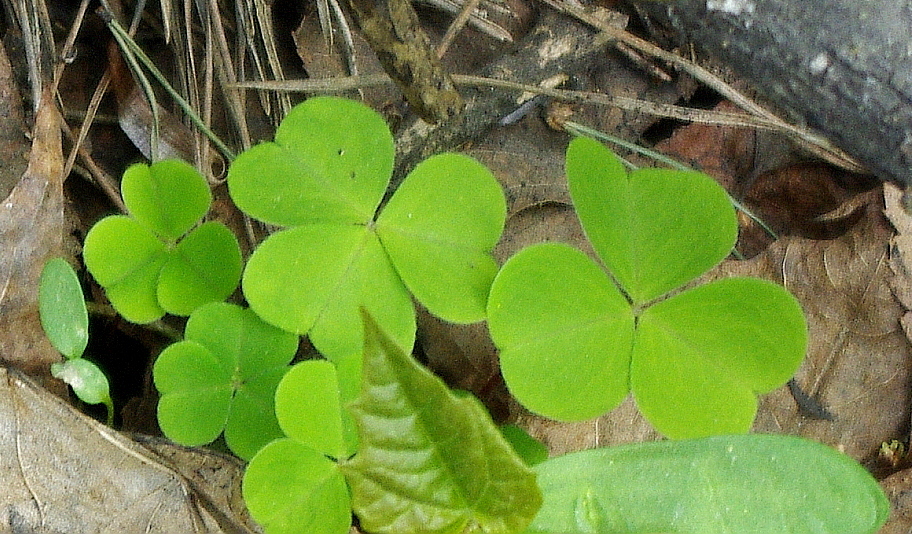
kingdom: Plantae
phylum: Tracheophyta
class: Magnoliopsida
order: Oxalidales
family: Oxalidaceae
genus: Oxalis
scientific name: Oxalis acetosella
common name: Wood-sorrel
